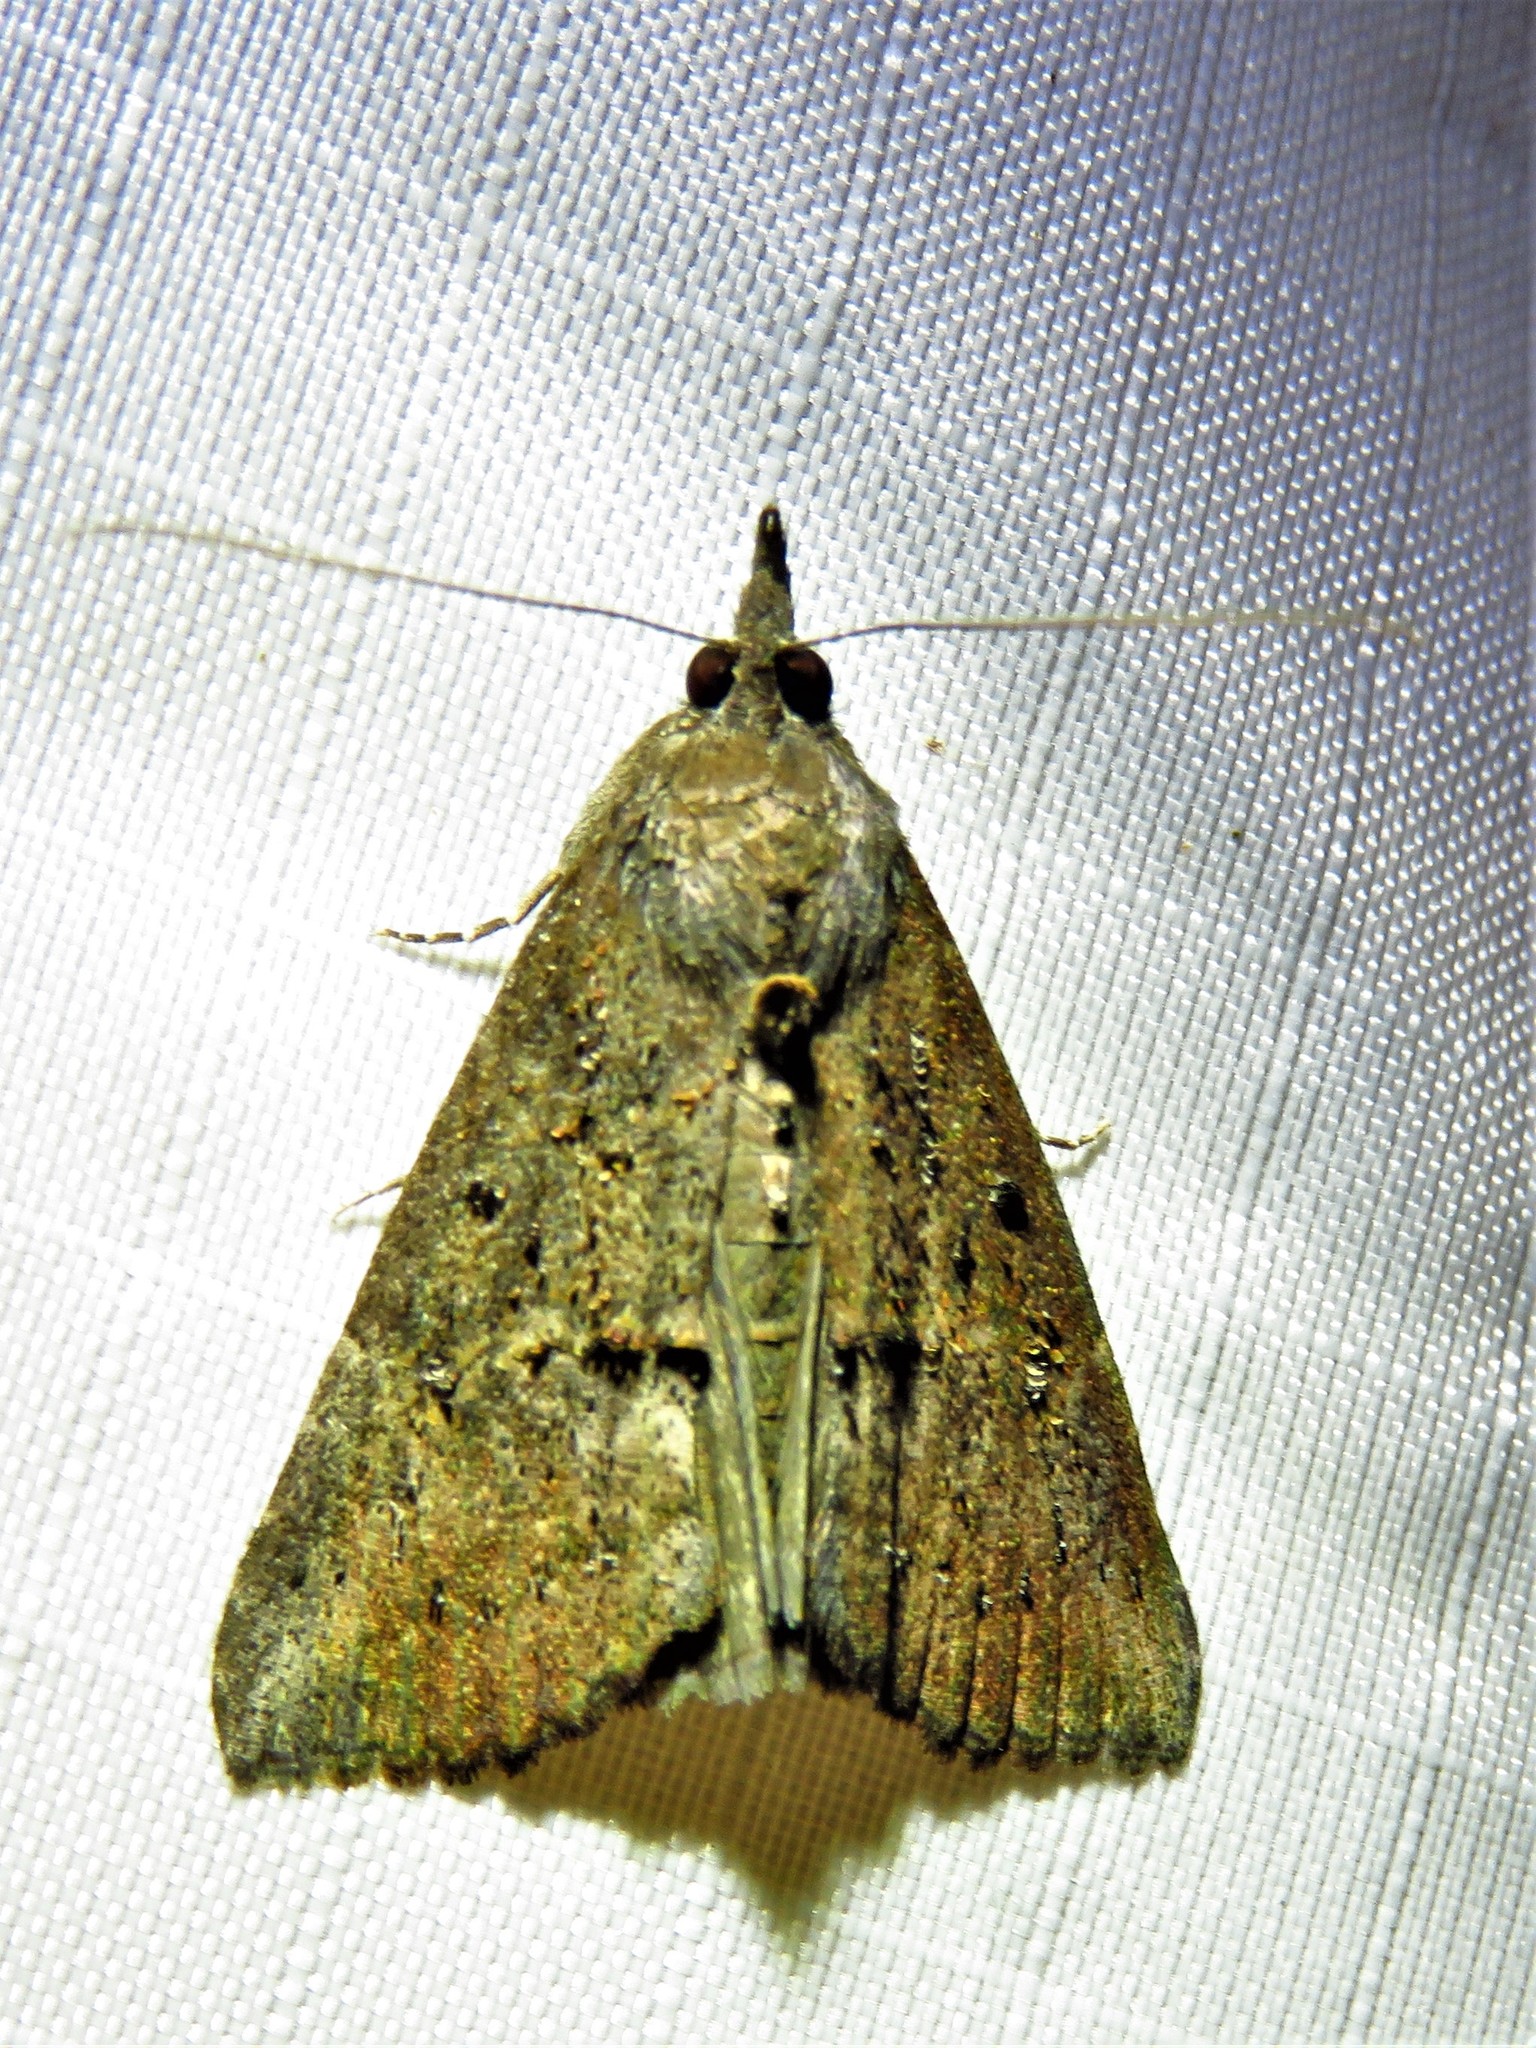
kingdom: Animalia
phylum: Arthropoda
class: Insecta
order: Lepidoptera
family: Erebidae
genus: Hypena
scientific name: Hypena scabra
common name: Green cloverworm
